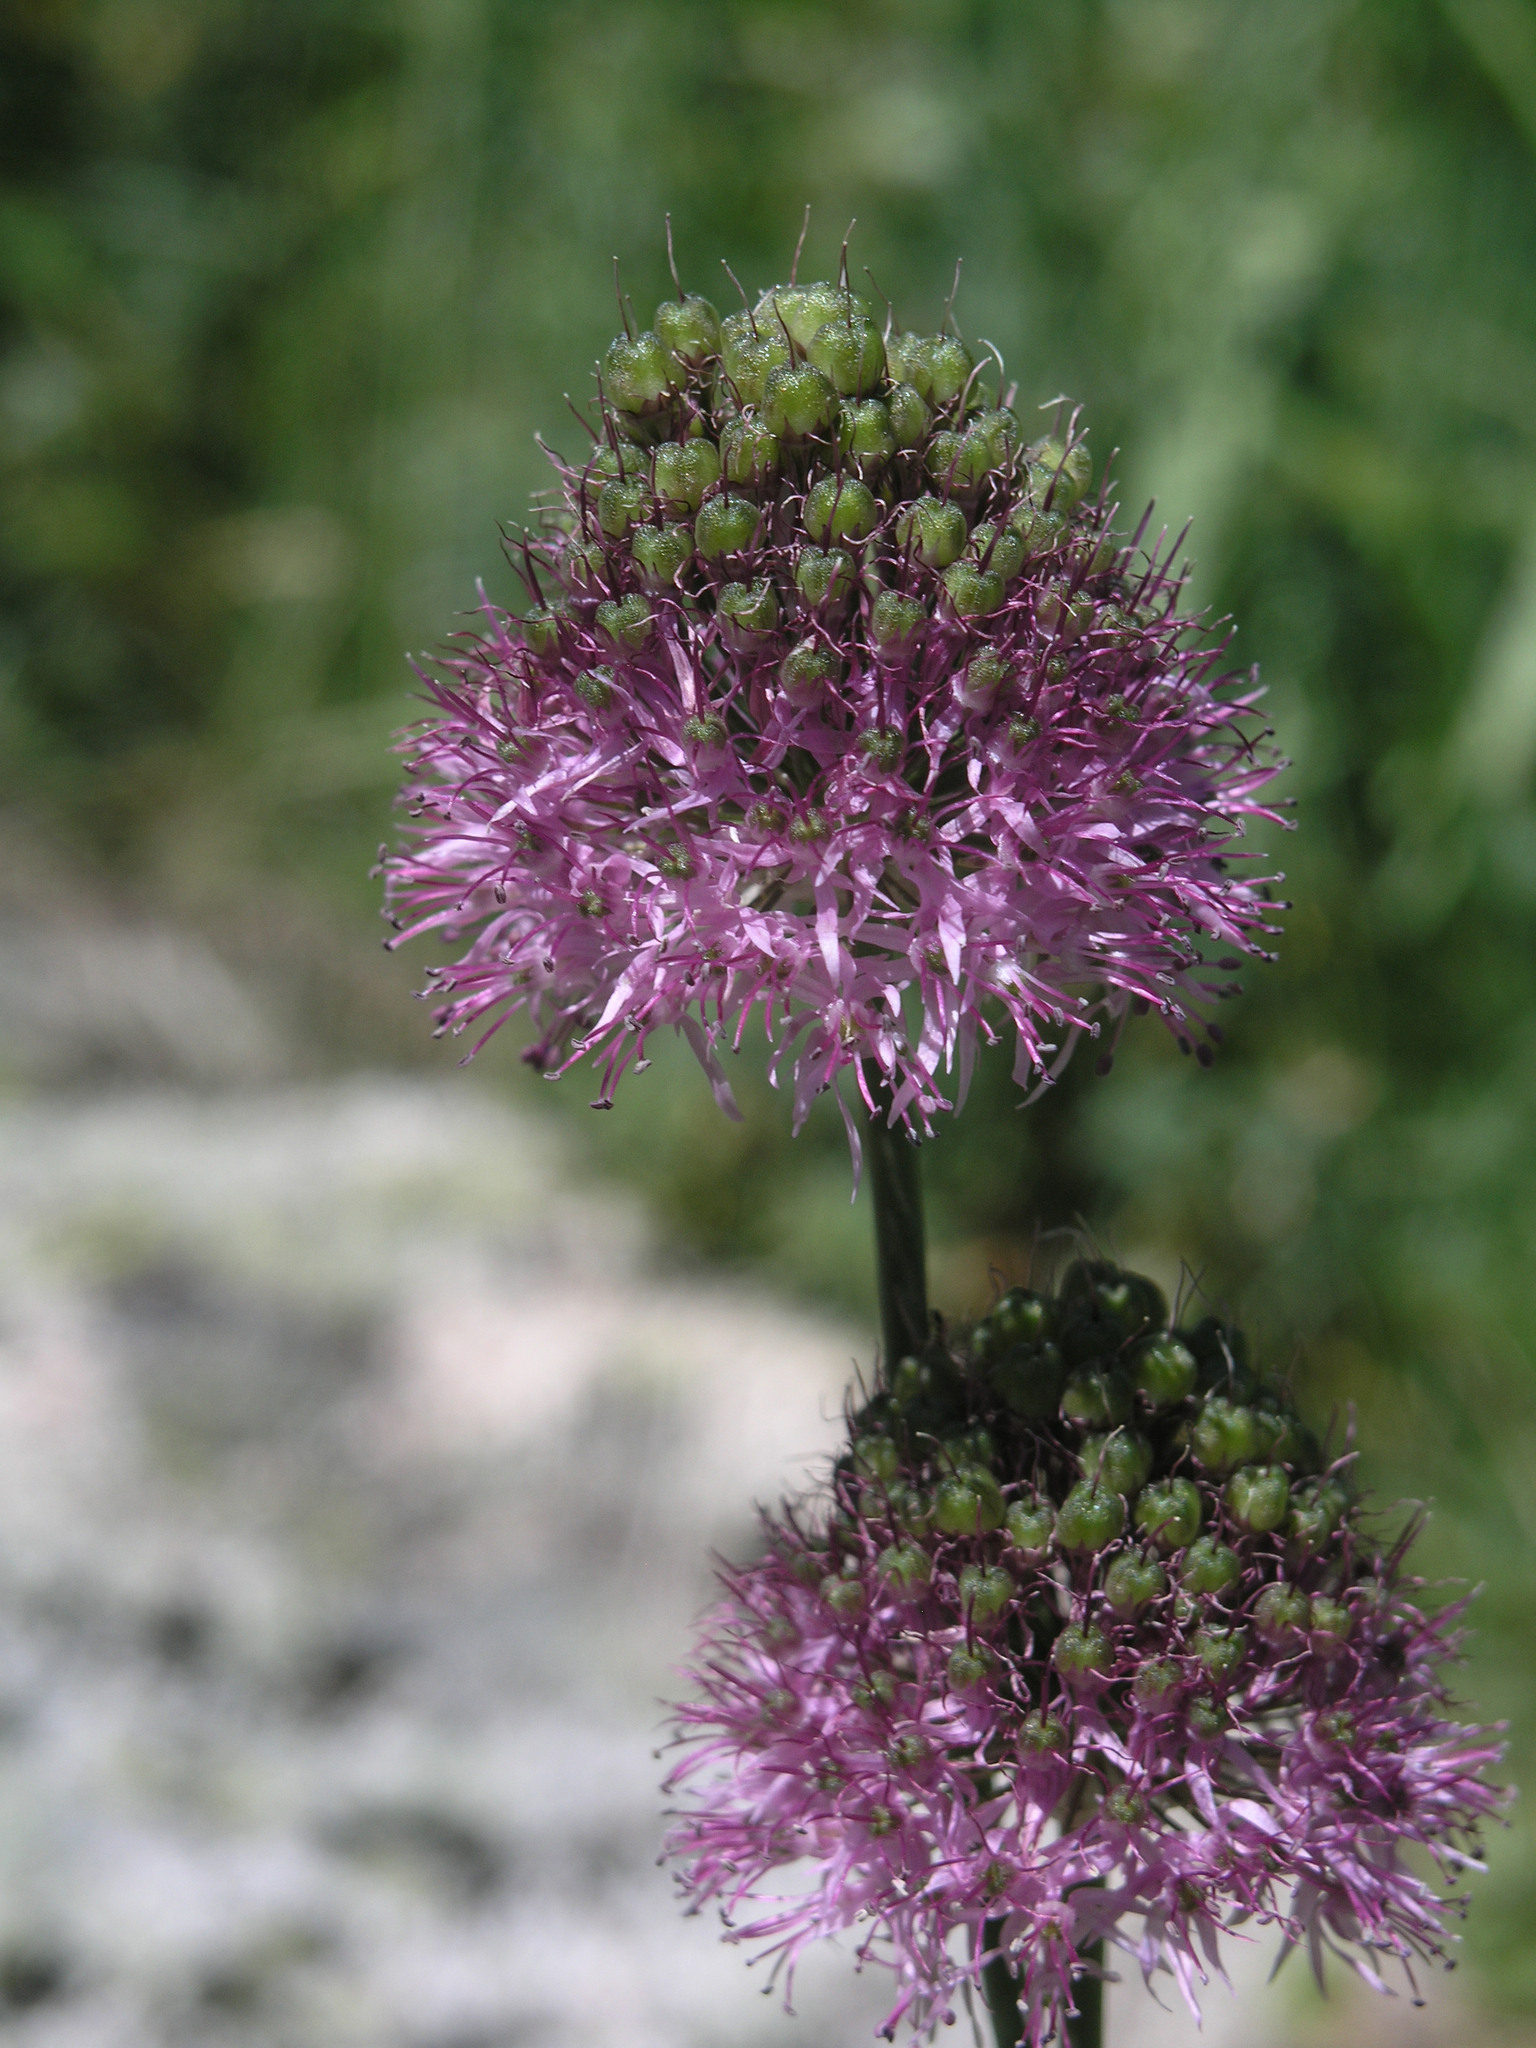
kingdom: Plantae
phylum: Tracheophyta
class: Liliopsida
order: Asparagales
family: Amaryllidaceae
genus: Allium
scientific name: Allium fetisowii
